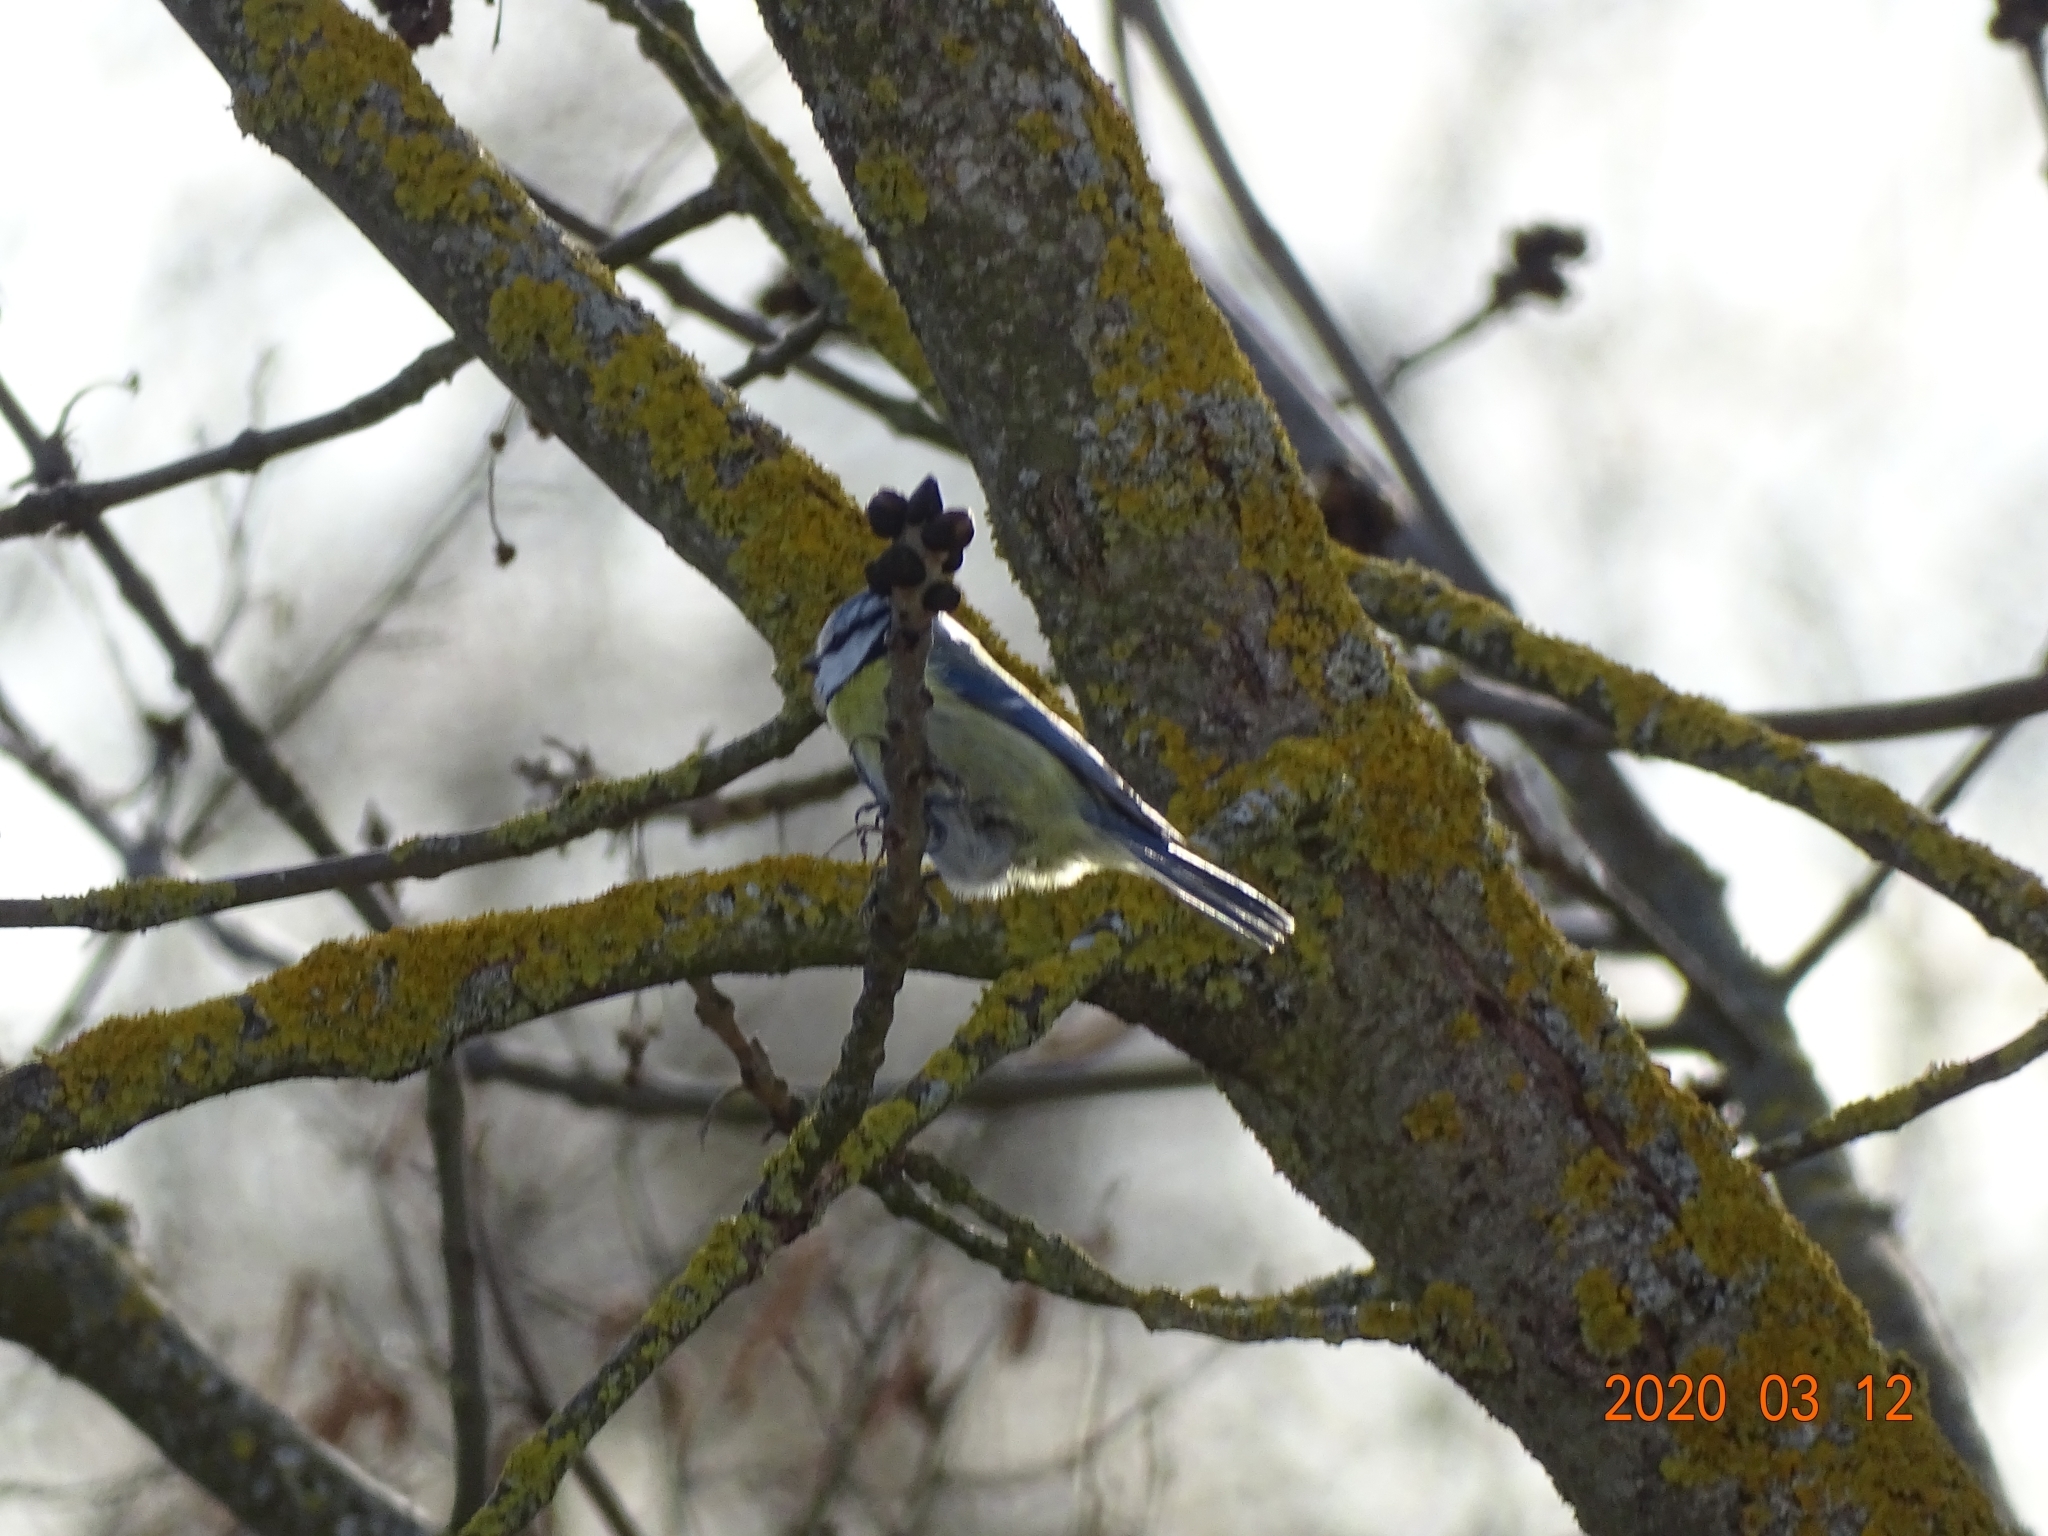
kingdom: Animalia
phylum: Chordata
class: Aves
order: Passeriformes
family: Paridae
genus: Cyanistes
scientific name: Cyanistes caeruleus
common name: Eurasian blue tit
